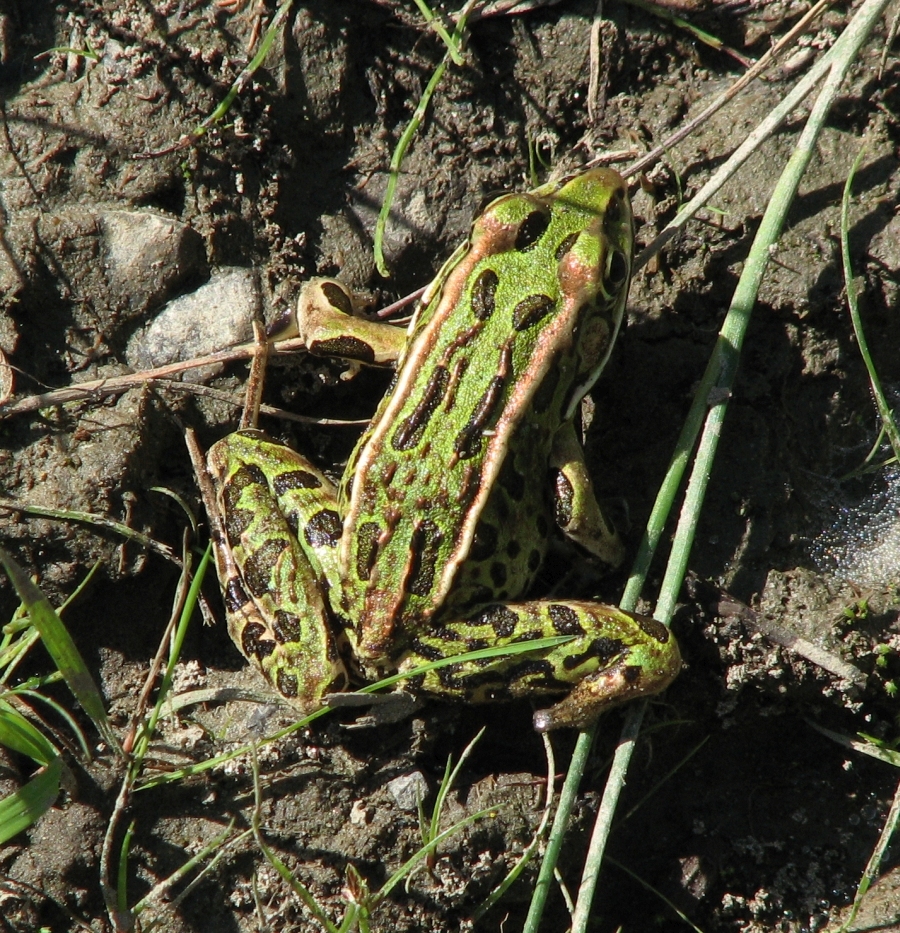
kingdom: Animalia
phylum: Chordata
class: Amphibia
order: Anura
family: Ranidae
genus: Lithobates
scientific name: Lithobates pipiens
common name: Northern leopard frog
